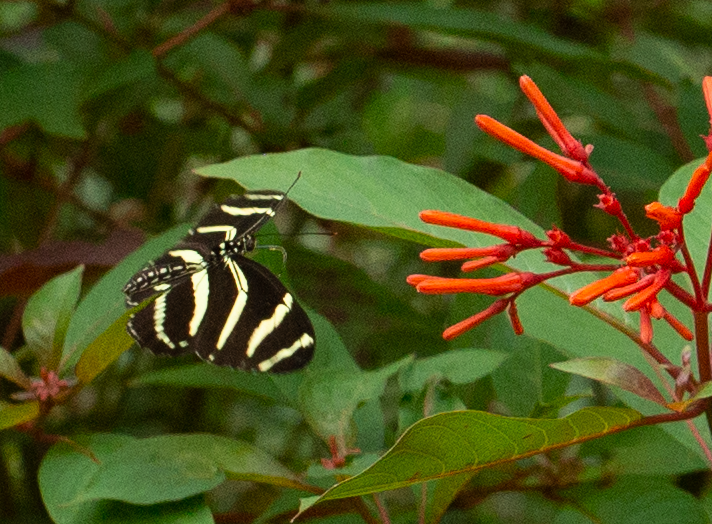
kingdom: Animalia
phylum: Arthropoda
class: Insecta
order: Lepidoptera
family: Nymphalidae
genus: Heliconius
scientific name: Heliconius charithonia
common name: Zebra long wing
